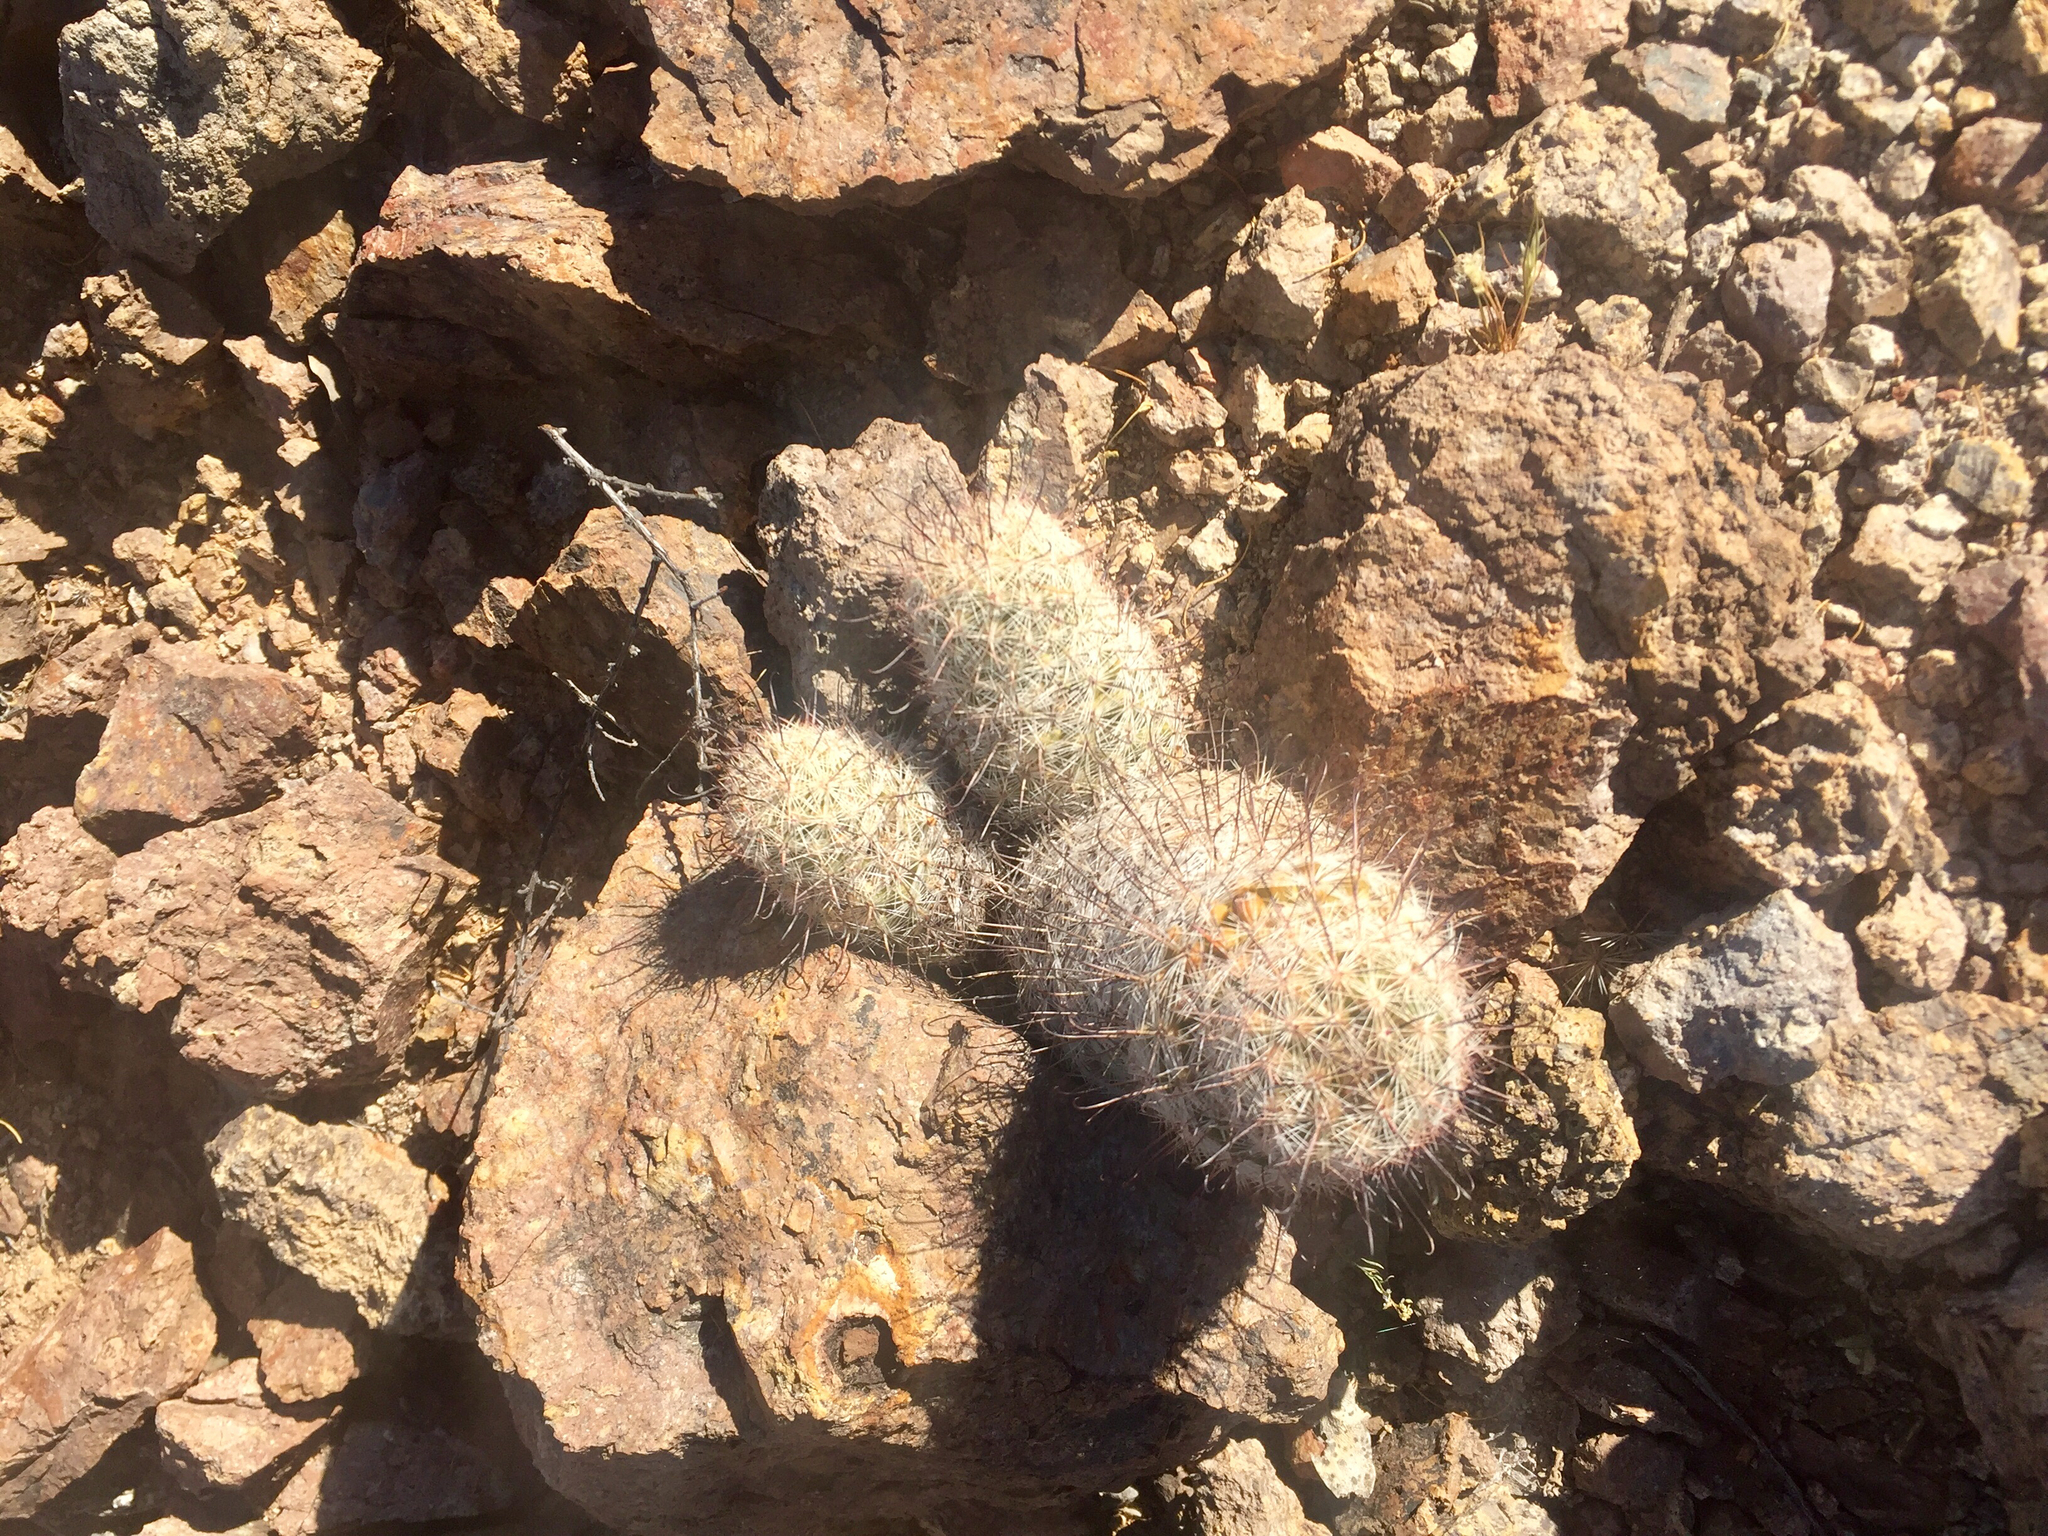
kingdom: Plantae
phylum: Tracheophyta
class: Magnoliopsida
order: Caryophyllales
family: Cactaceae
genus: Cochemiea
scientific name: Cochemiea grahamii
